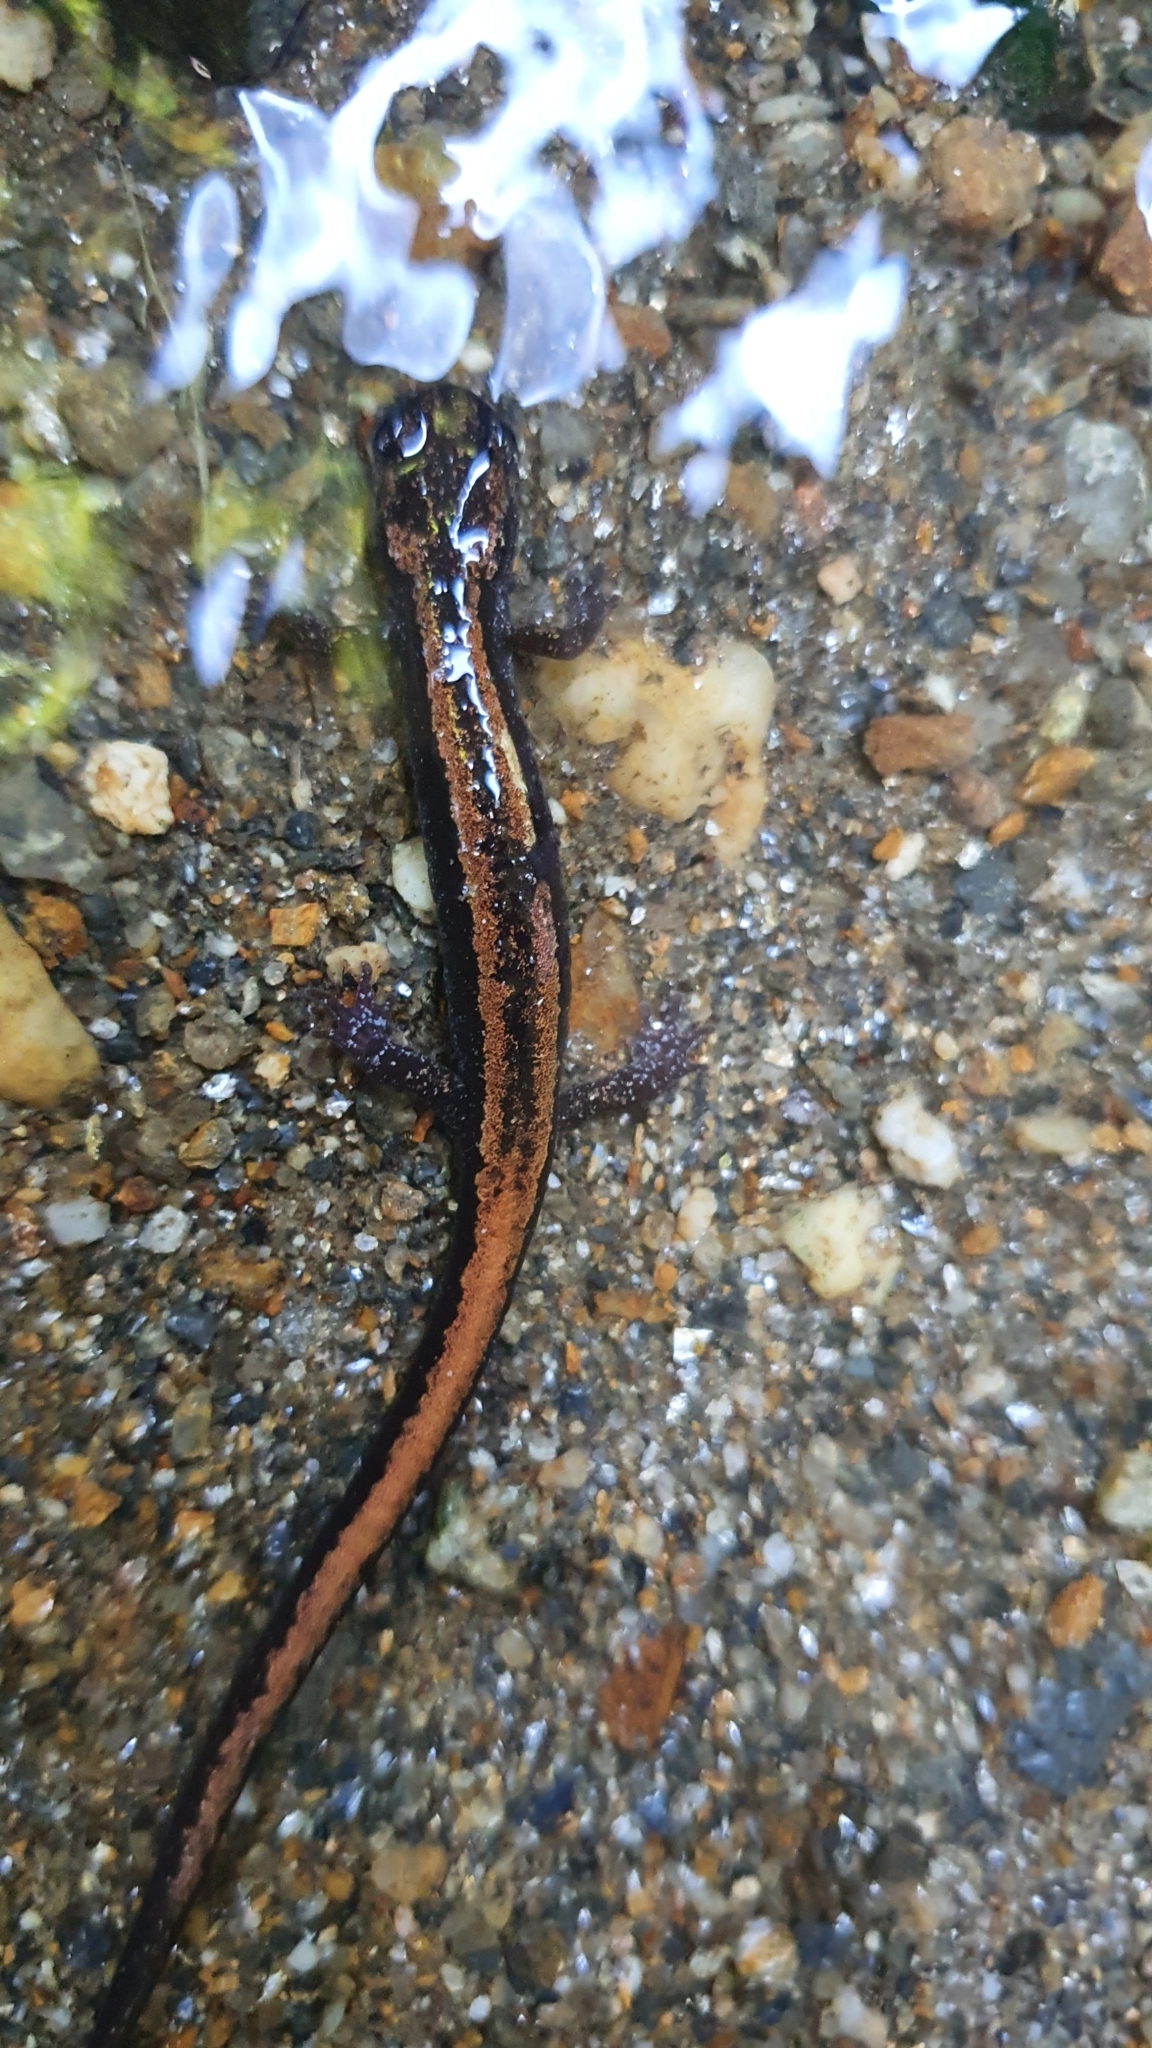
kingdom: Animalia
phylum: Chordata
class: Amphibia
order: Caudata
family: Salamandridae
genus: Chioglossa
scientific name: Chioglossa lusitanica
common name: Gold-striped salamander
